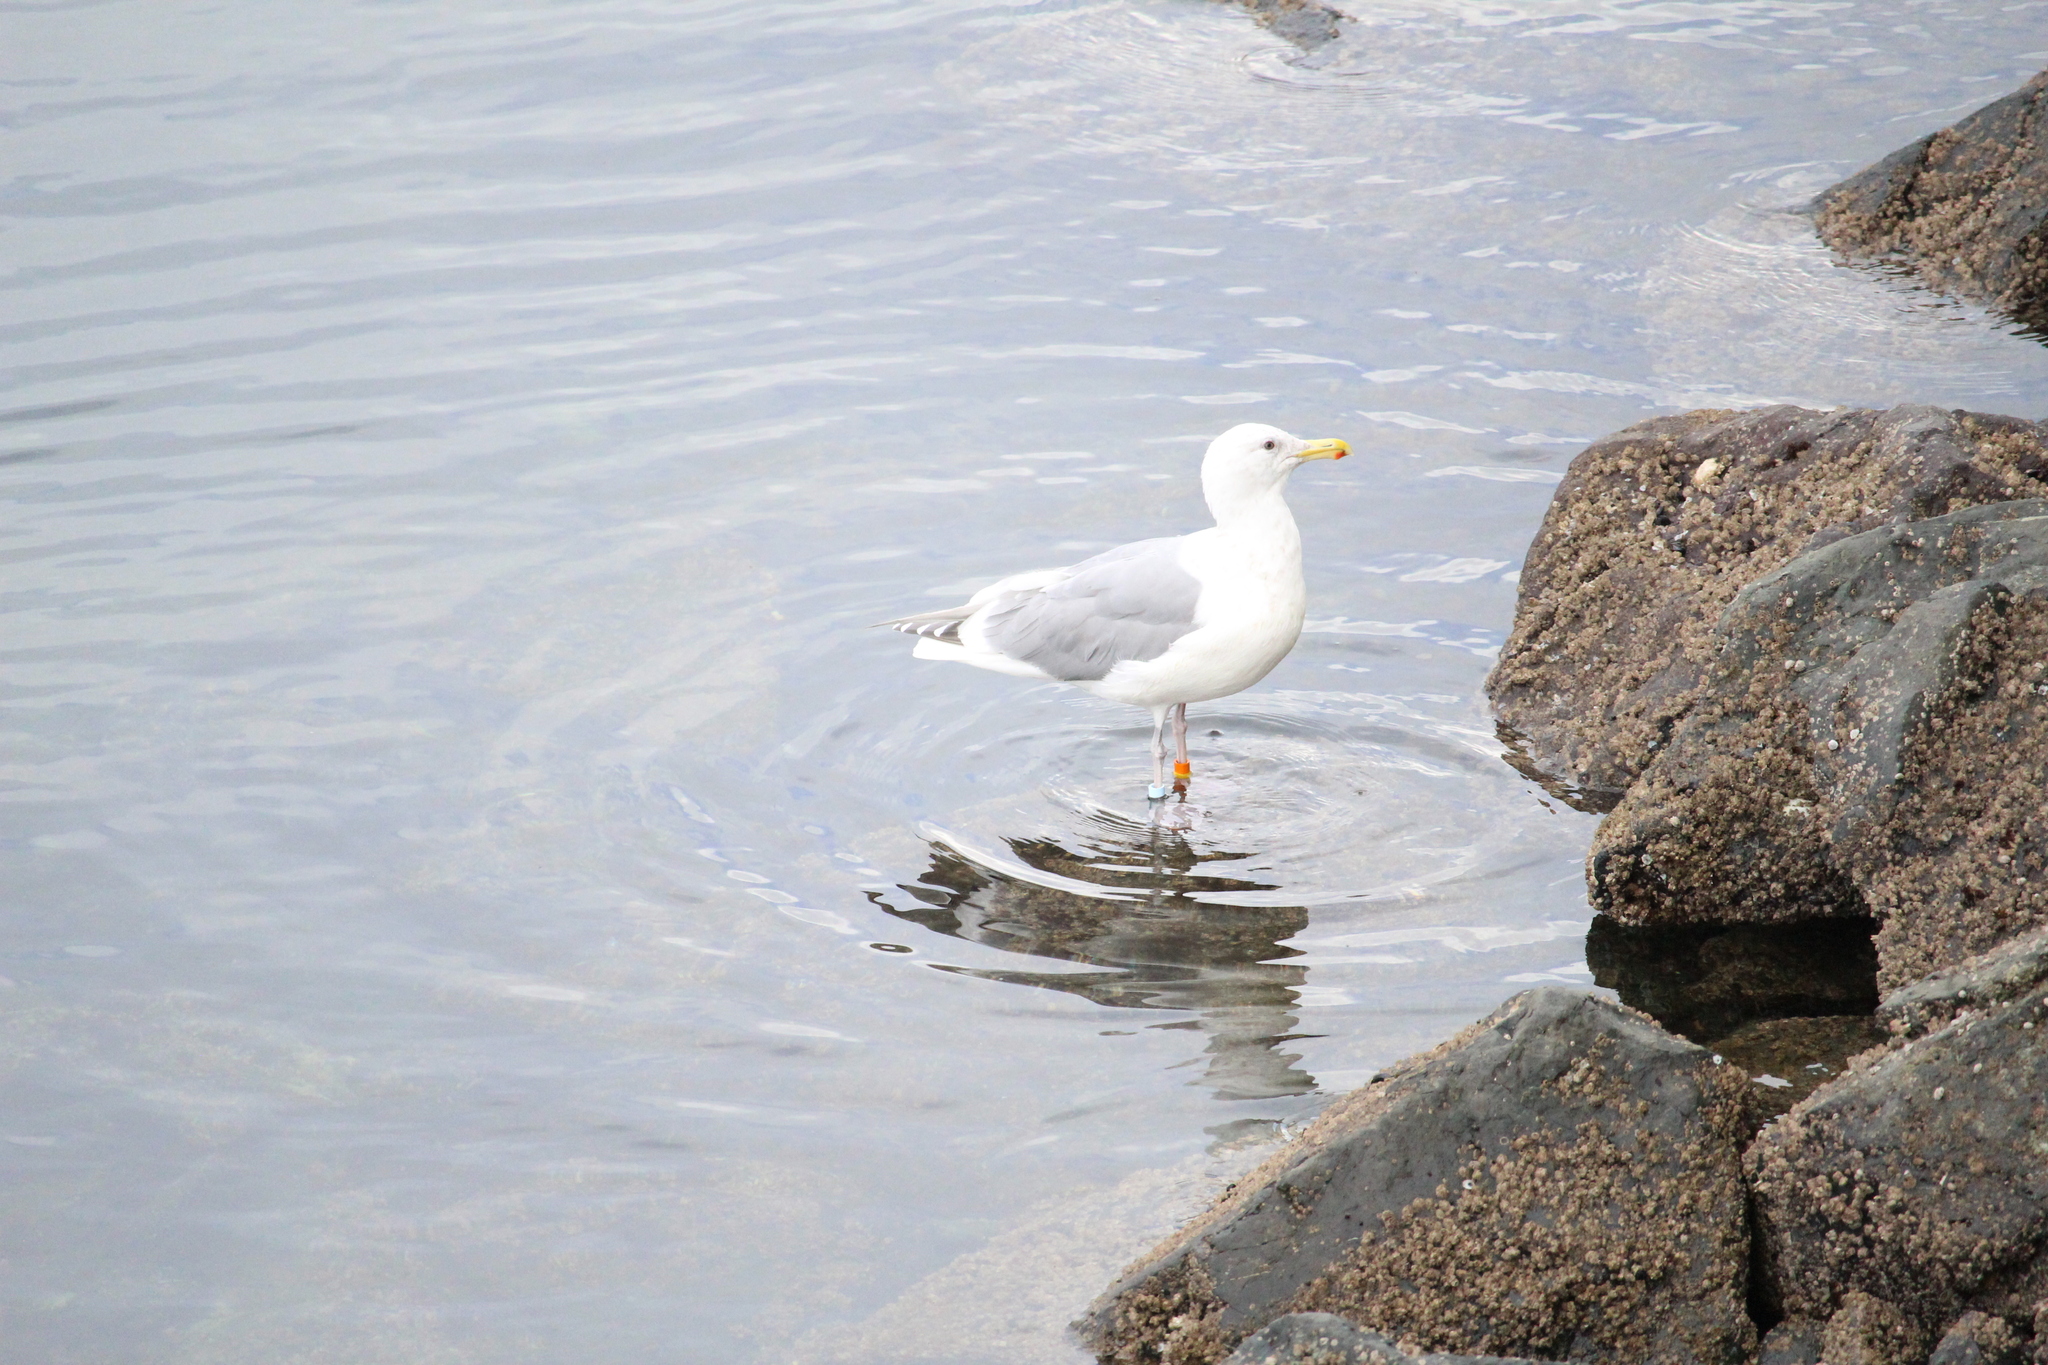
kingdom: Animalia
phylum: Chordata
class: Aves
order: Charadriiformes
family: Laridae
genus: Larus
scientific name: Larus glaucescens
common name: Glaucous-winged gull
